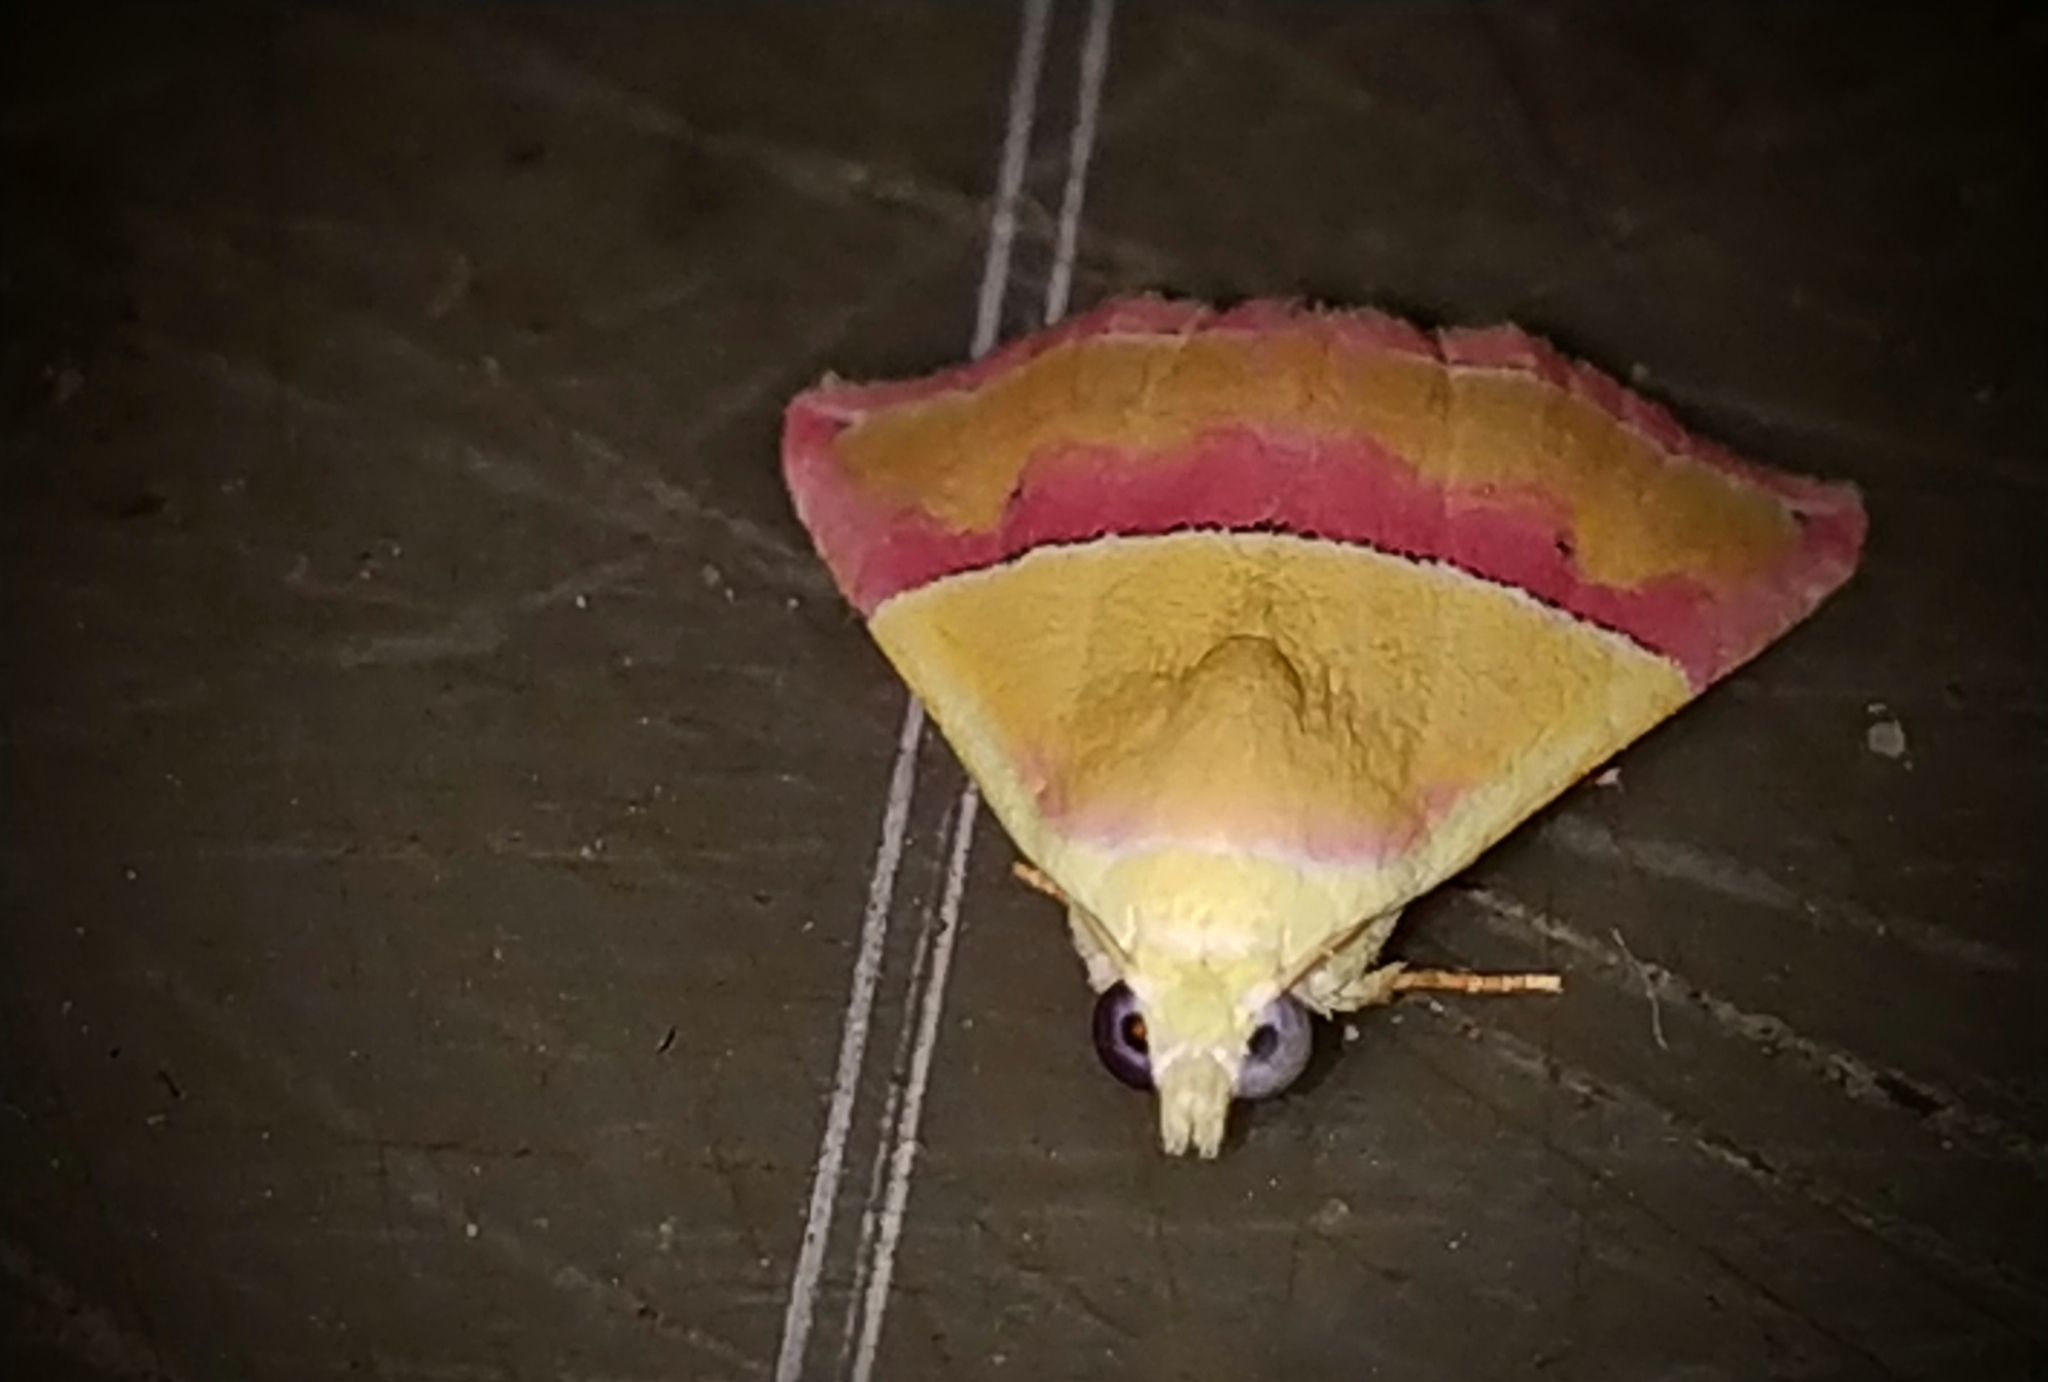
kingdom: Animalia
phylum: Arthropoda
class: Insecta
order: Lepidoptera
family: Noctuidae
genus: Eublemma
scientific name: Eublemma accedens
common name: Moth
